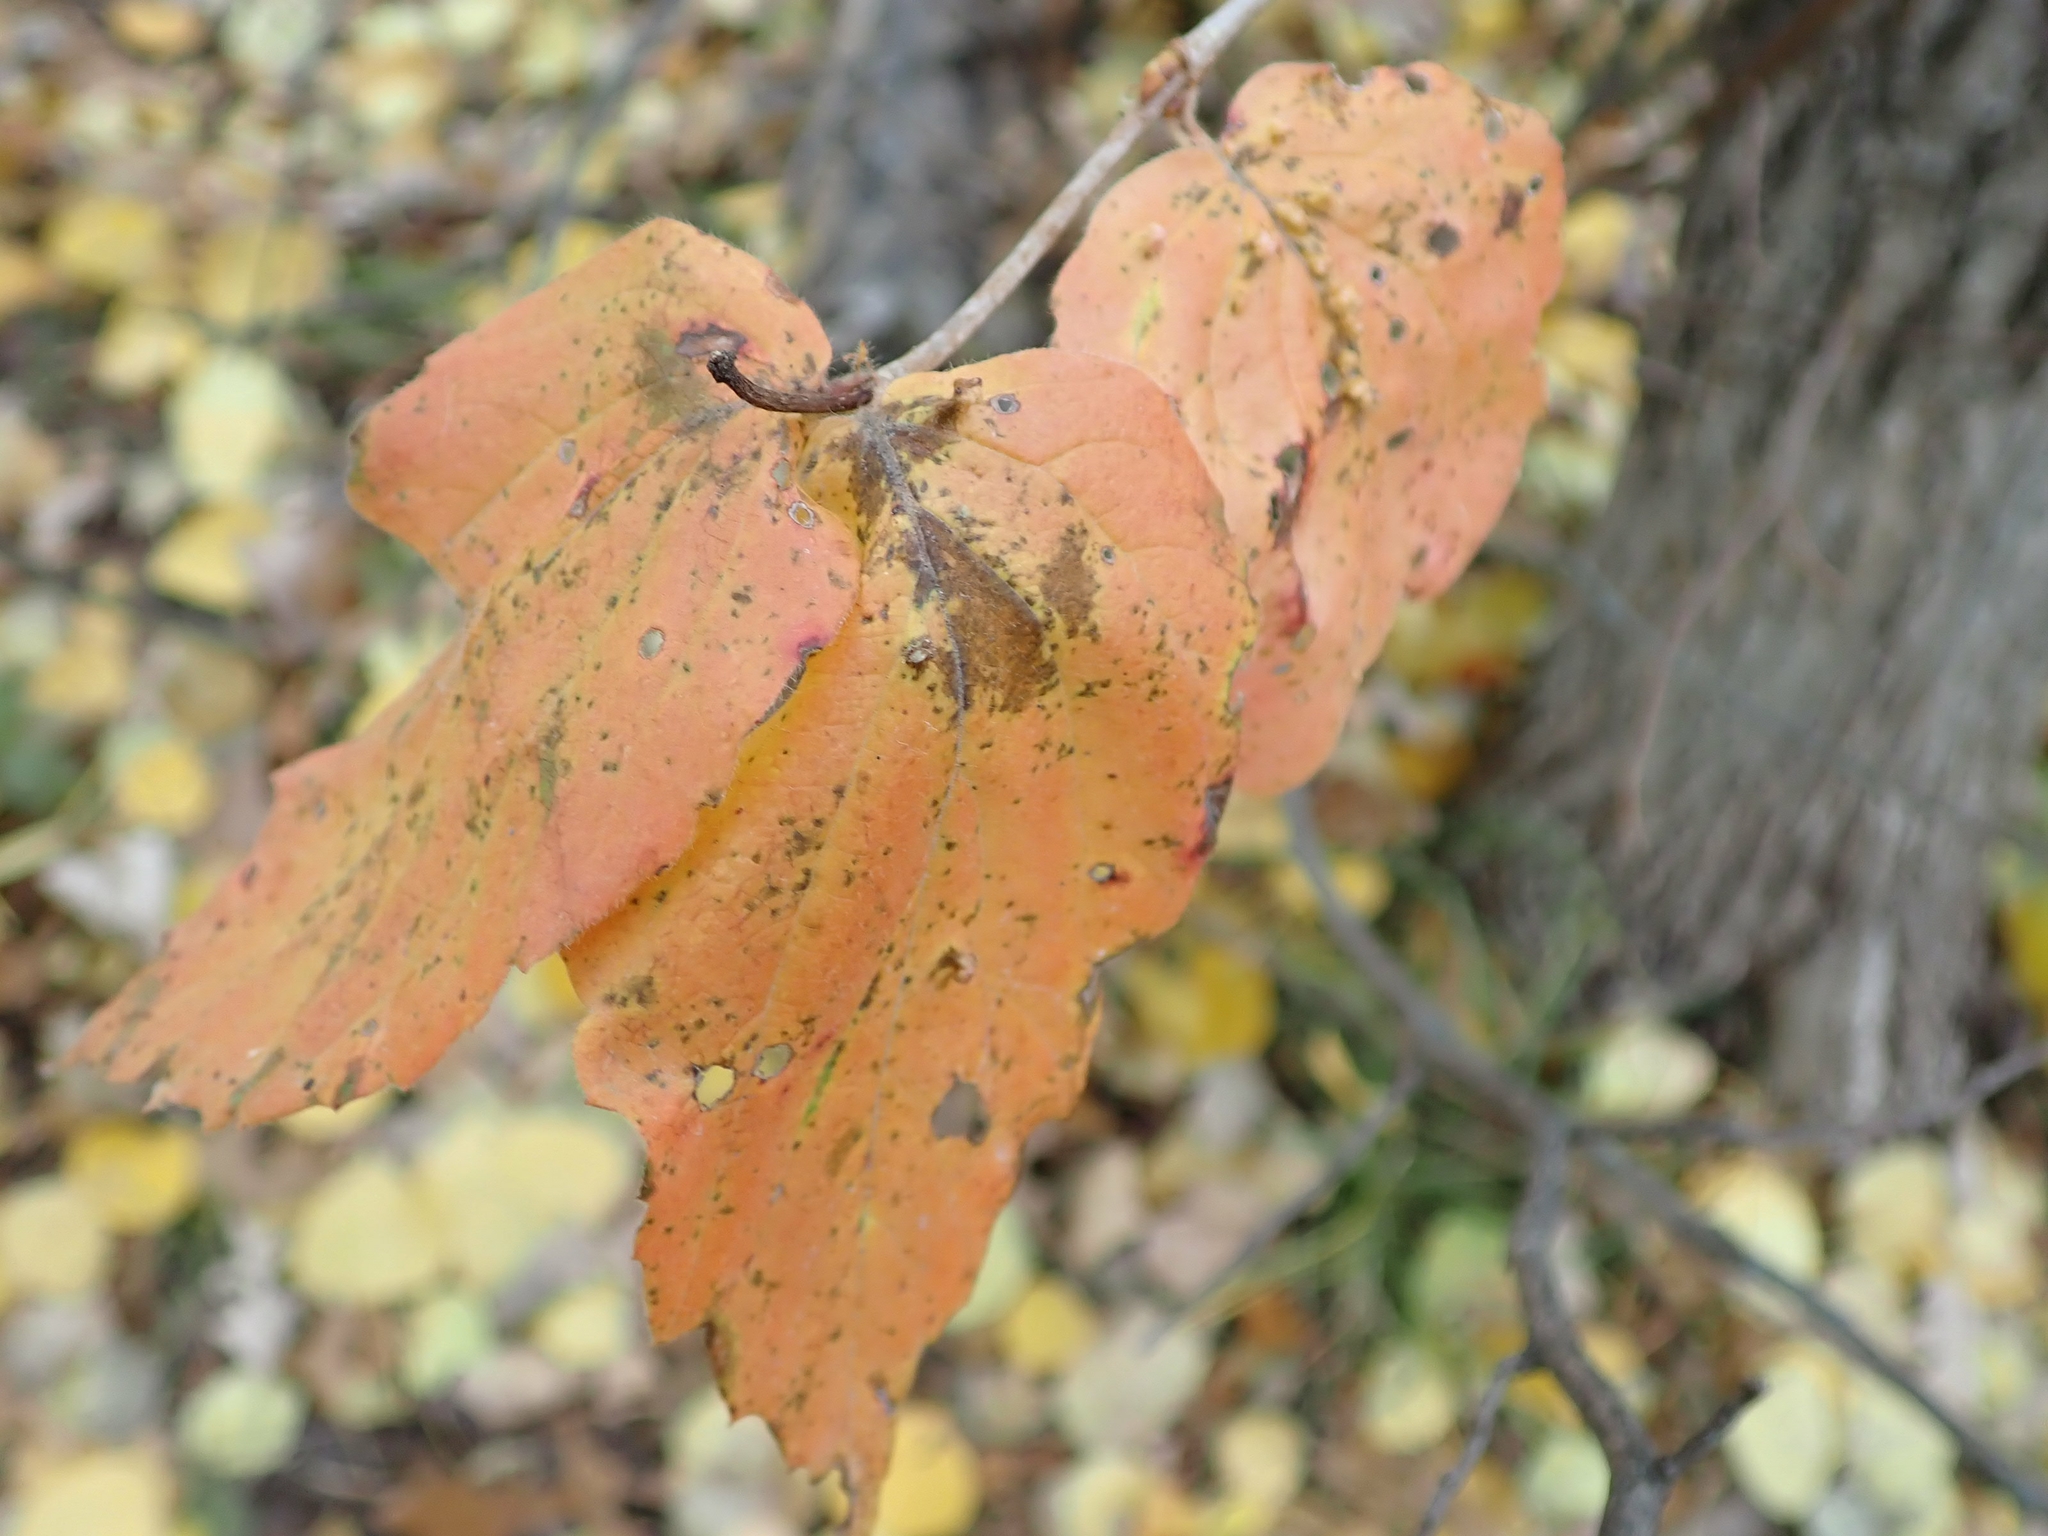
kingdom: Plantae
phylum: Tracheophyta
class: Magnoliopsida
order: Dipsacales
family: Viburnaceae
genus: Viburnum
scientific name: Viburnum rafinesqueanum
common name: Downy arrow-wood
